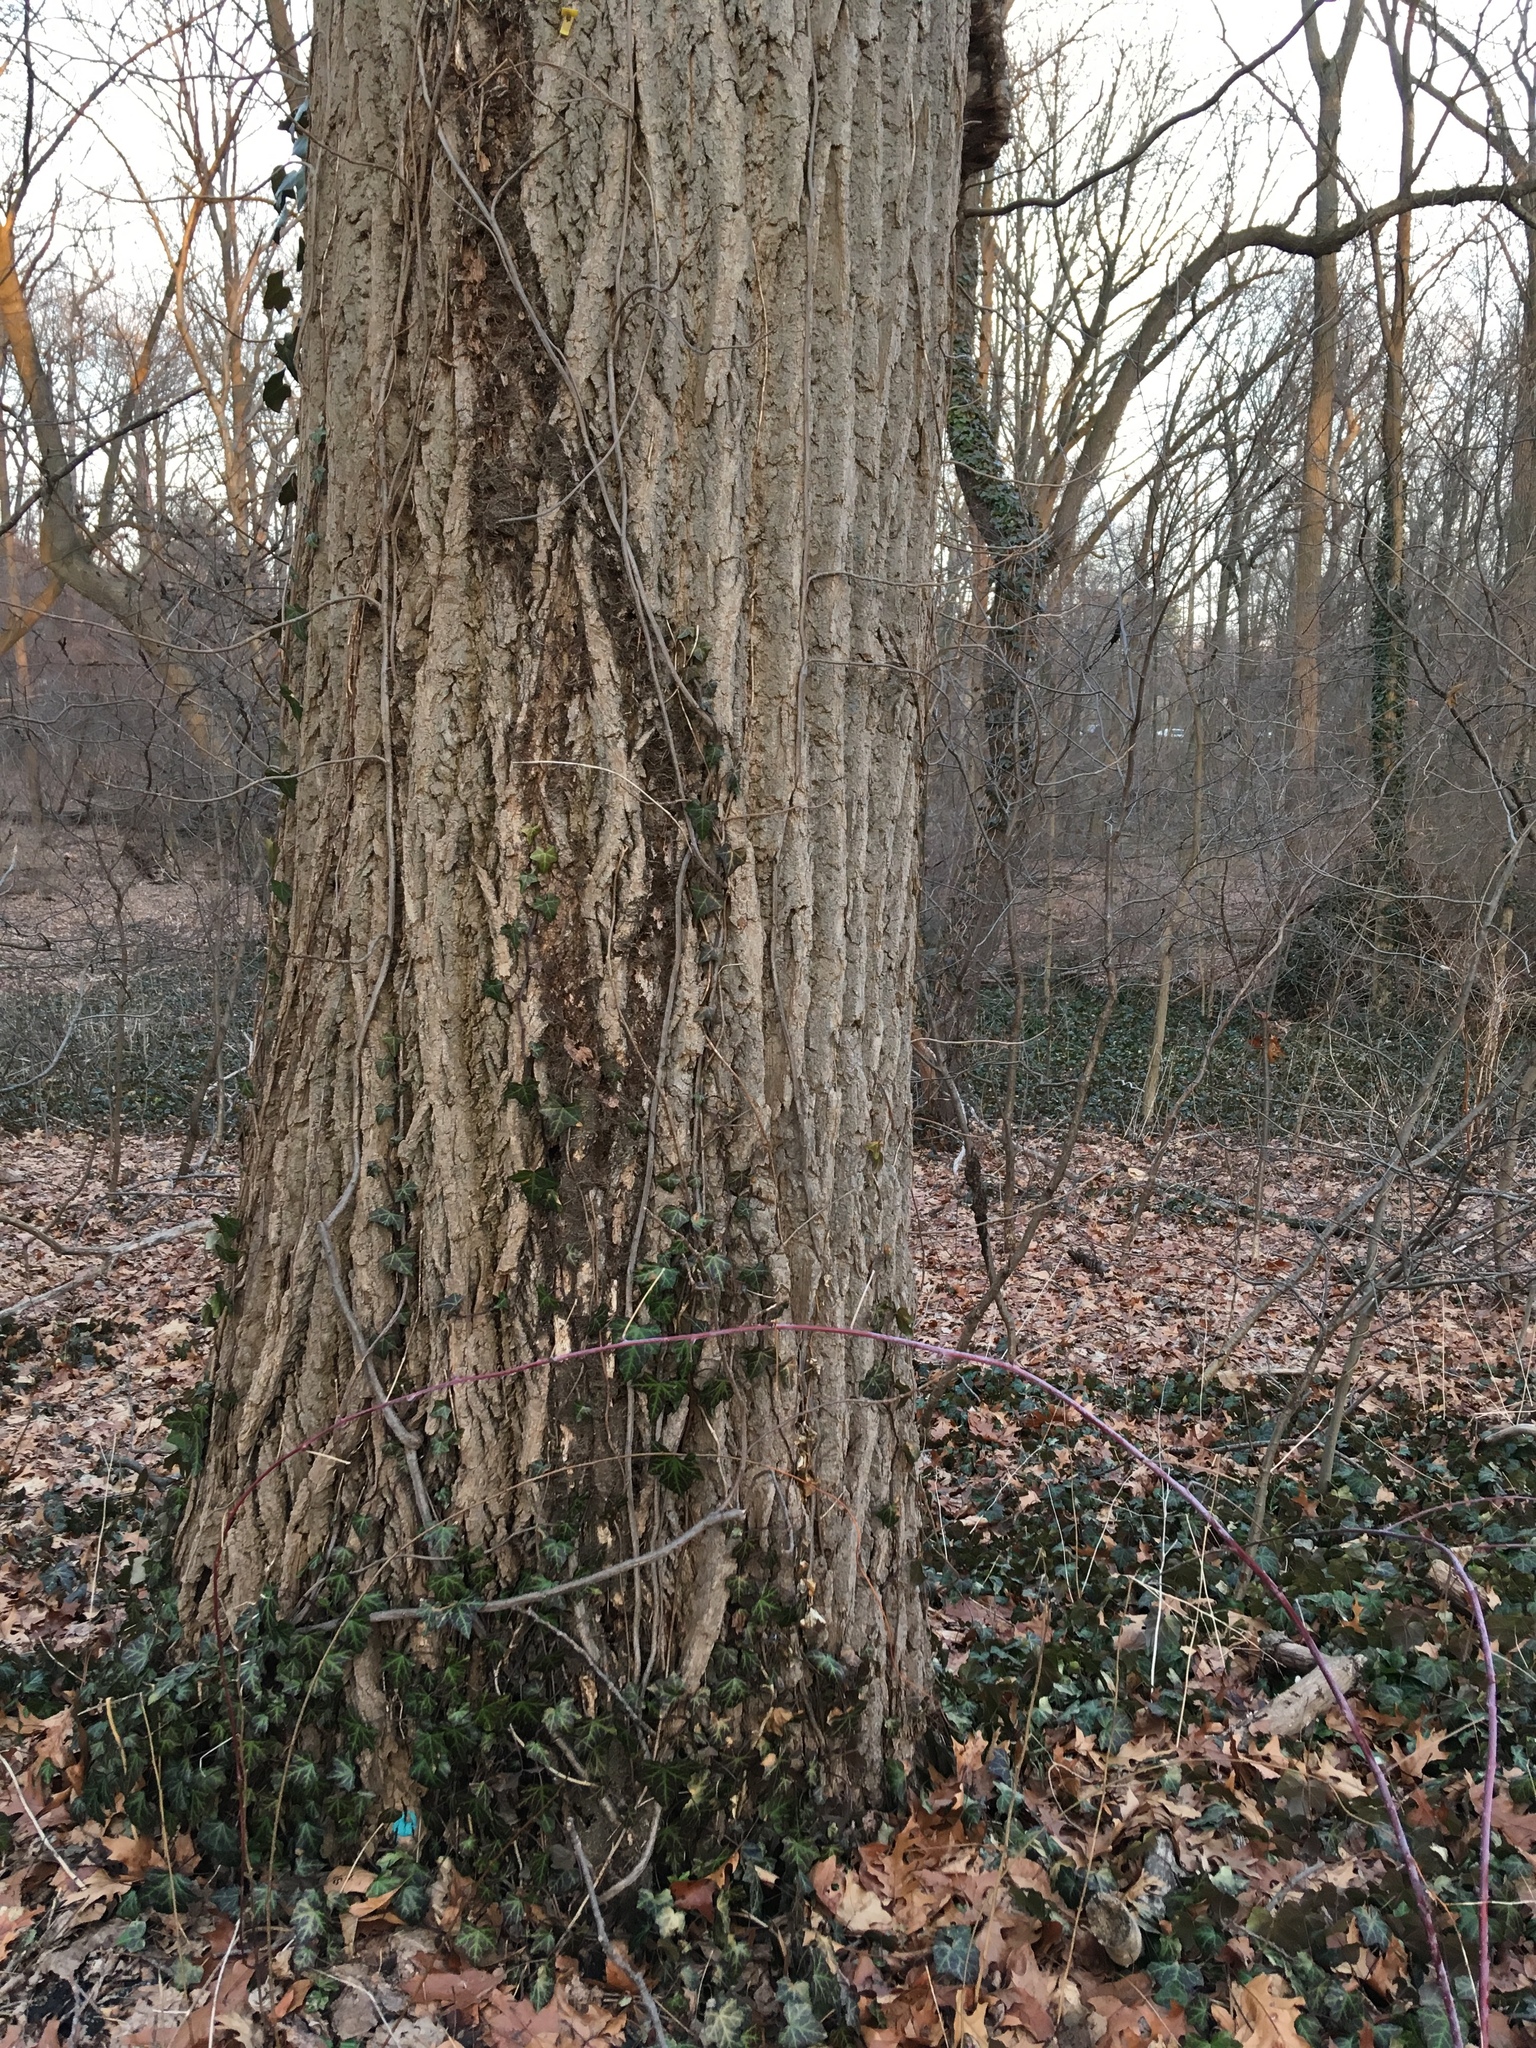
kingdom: Plantae
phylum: Tracheophyta
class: Magnoliopsida
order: Apiales
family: Araliaceae
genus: Hedera
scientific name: Hedera helix
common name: Ivy
